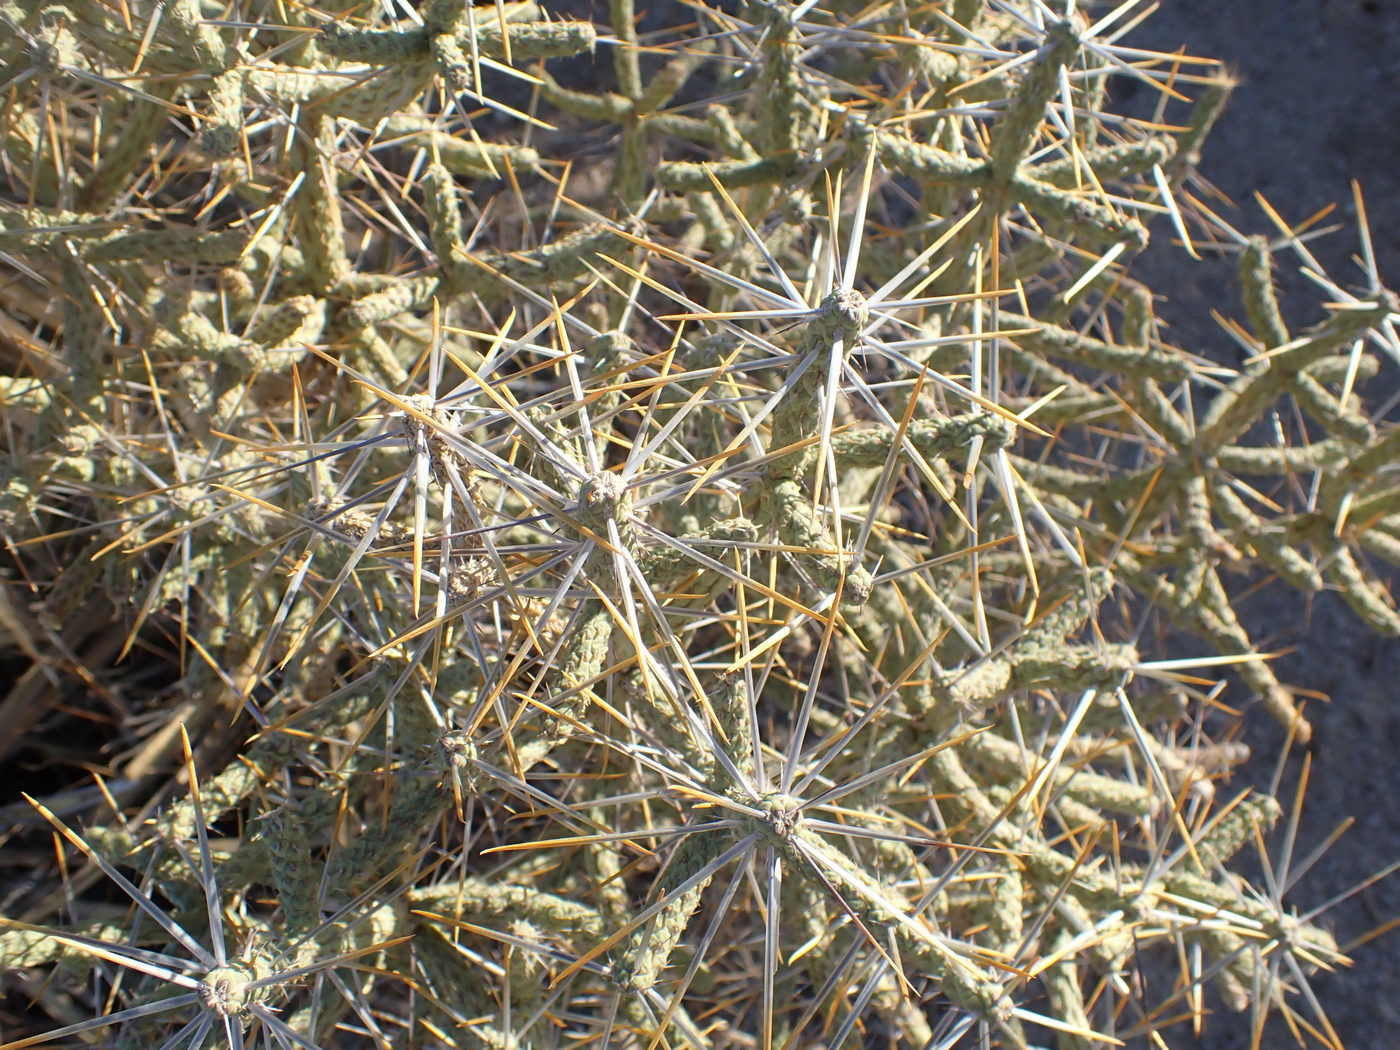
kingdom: Plantae
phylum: Tracheophyta
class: Magnoliopsida
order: Caryophyllales
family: Cactaceae
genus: Cylindropuntia
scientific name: Cylindropuntia ramosissima
